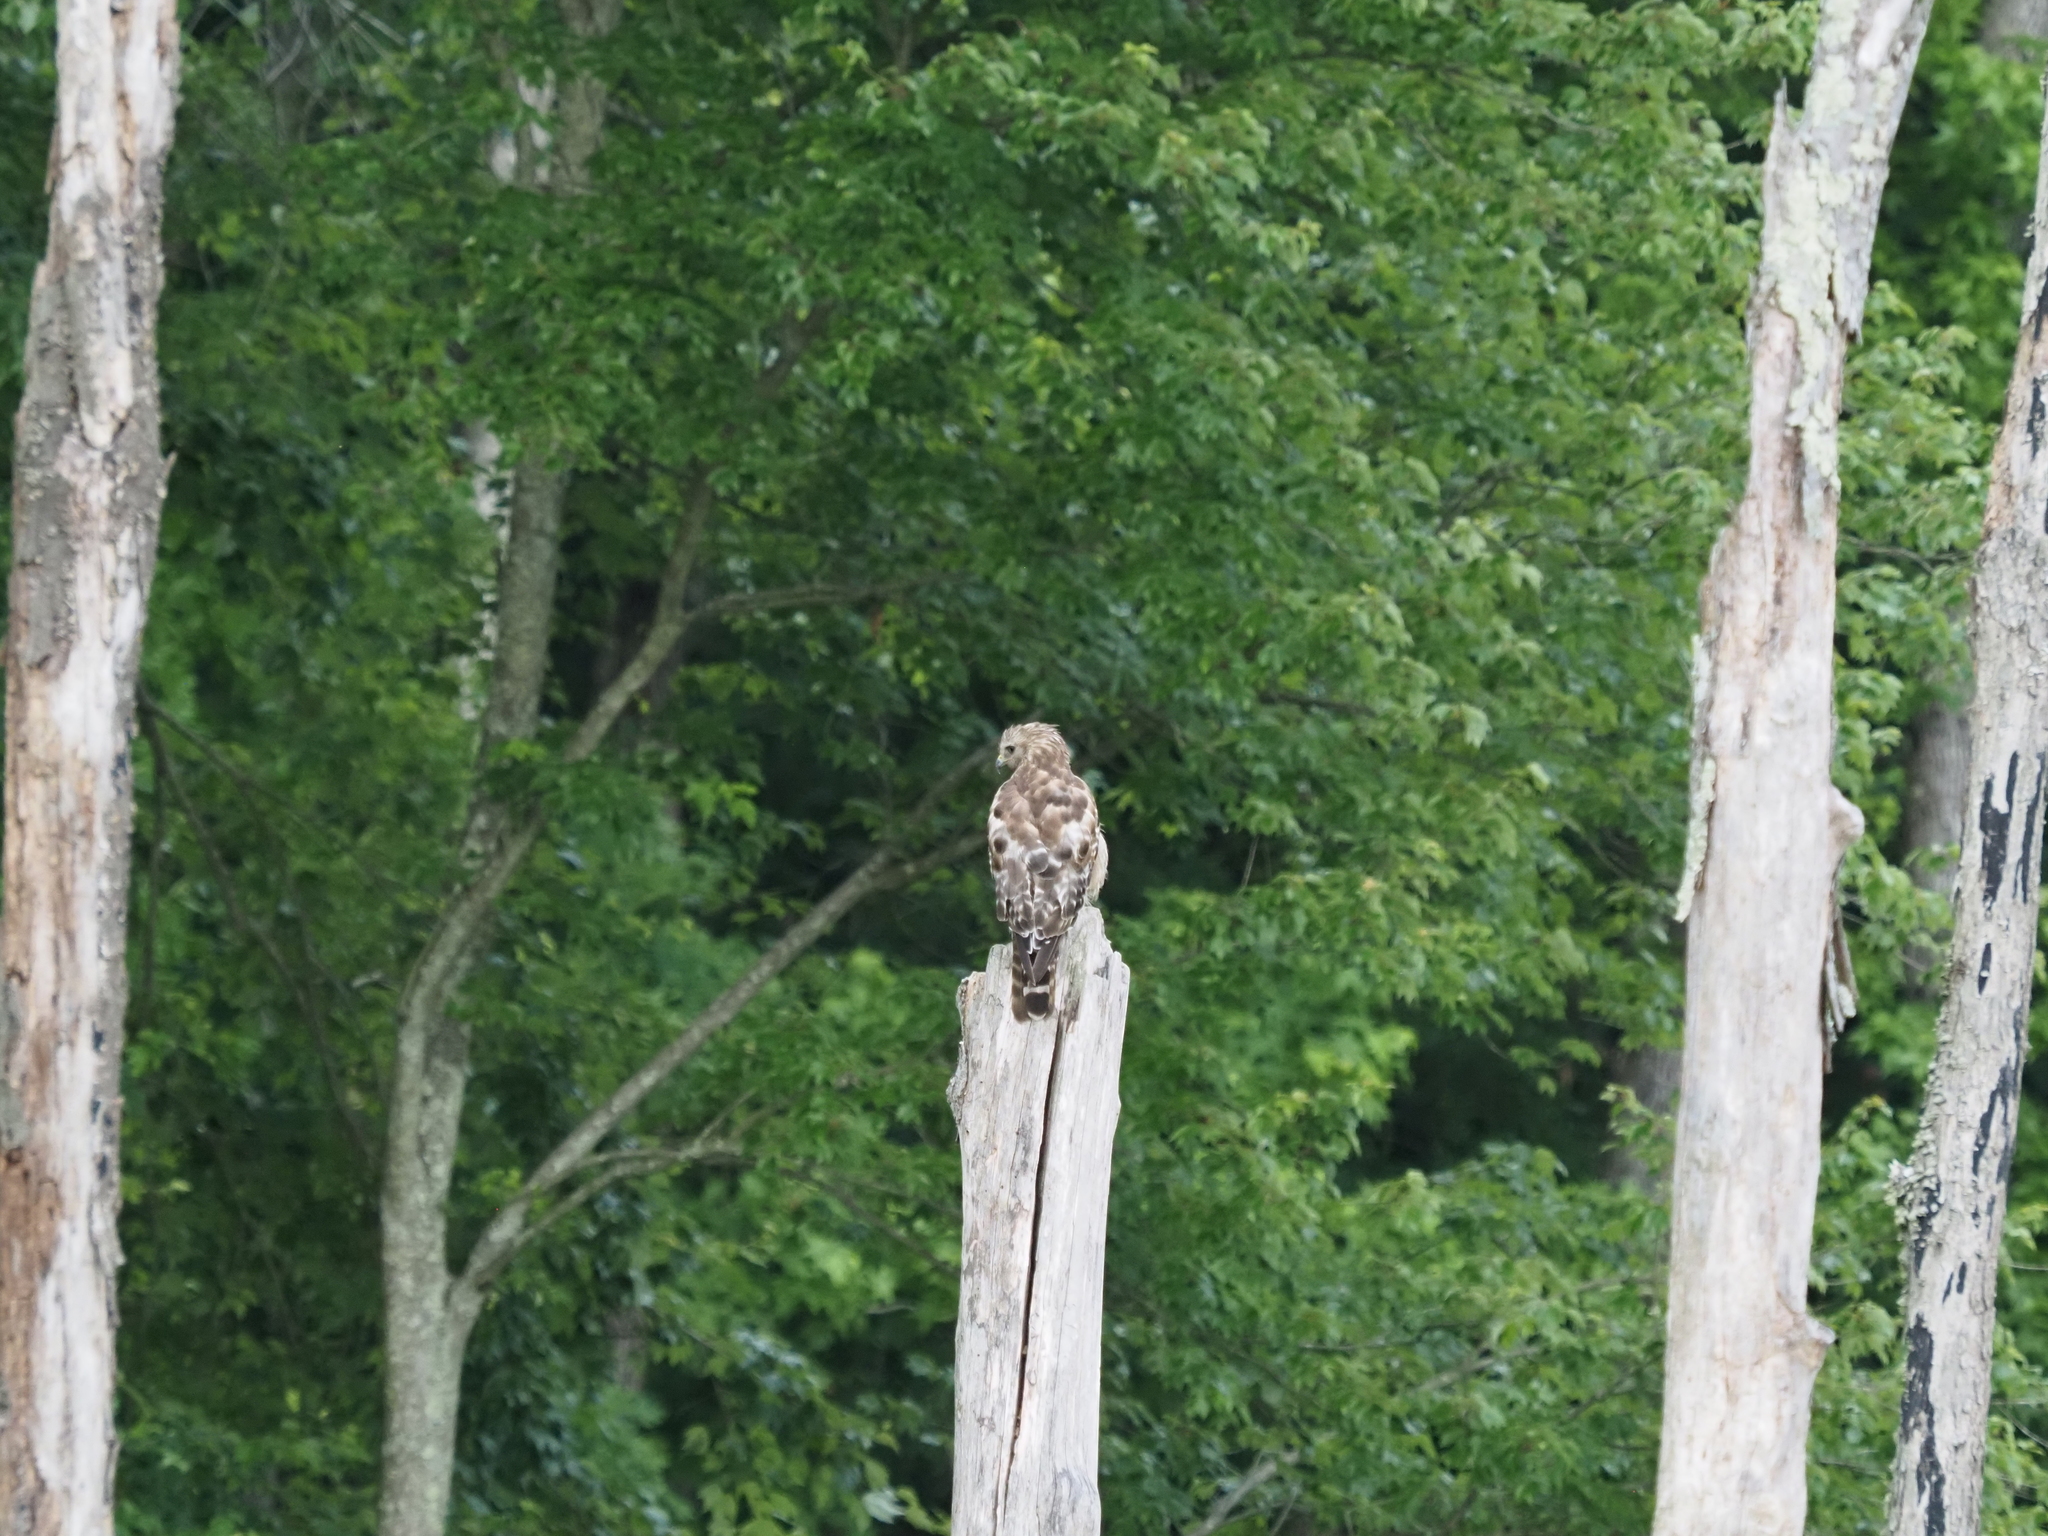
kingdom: Animalia
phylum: Chordata
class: Aves
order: Accipitriformes
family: Accipitridae
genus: Buteo
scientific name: Buteo lineatus
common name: Red-shouldered hawk
